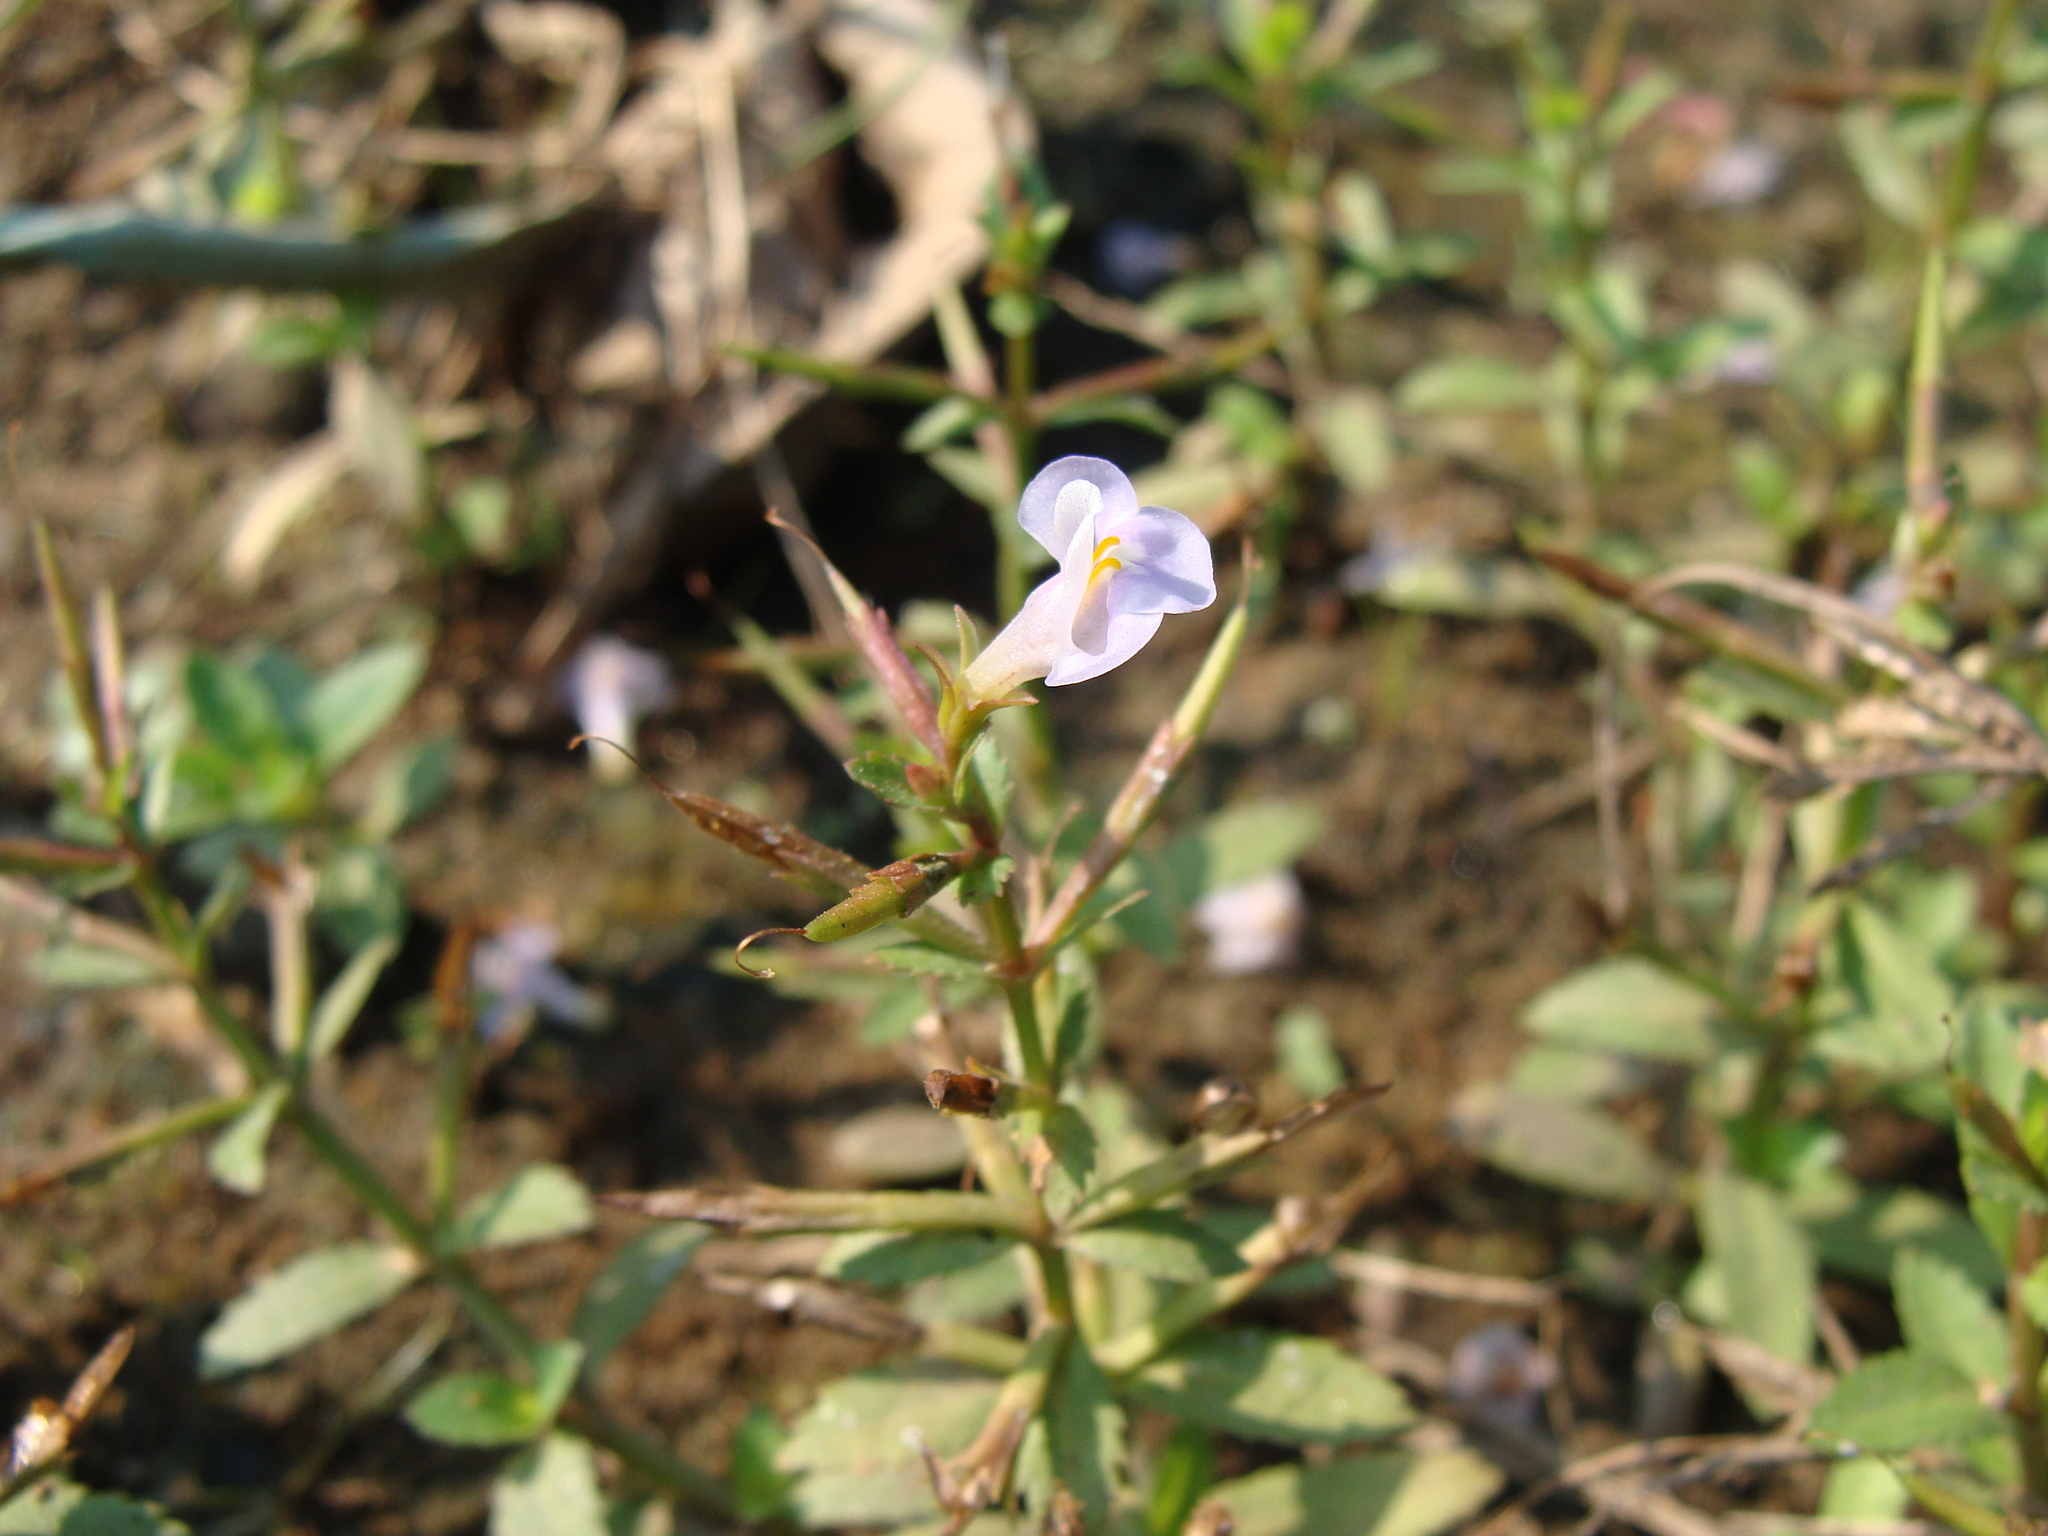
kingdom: Plantae
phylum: Tracheophyta
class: Magnoliopsida
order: Lamiales
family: Linderniaceae
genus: Bonnaya
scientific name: Bonnaya antipoda
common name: Sparrow false pimpernel
